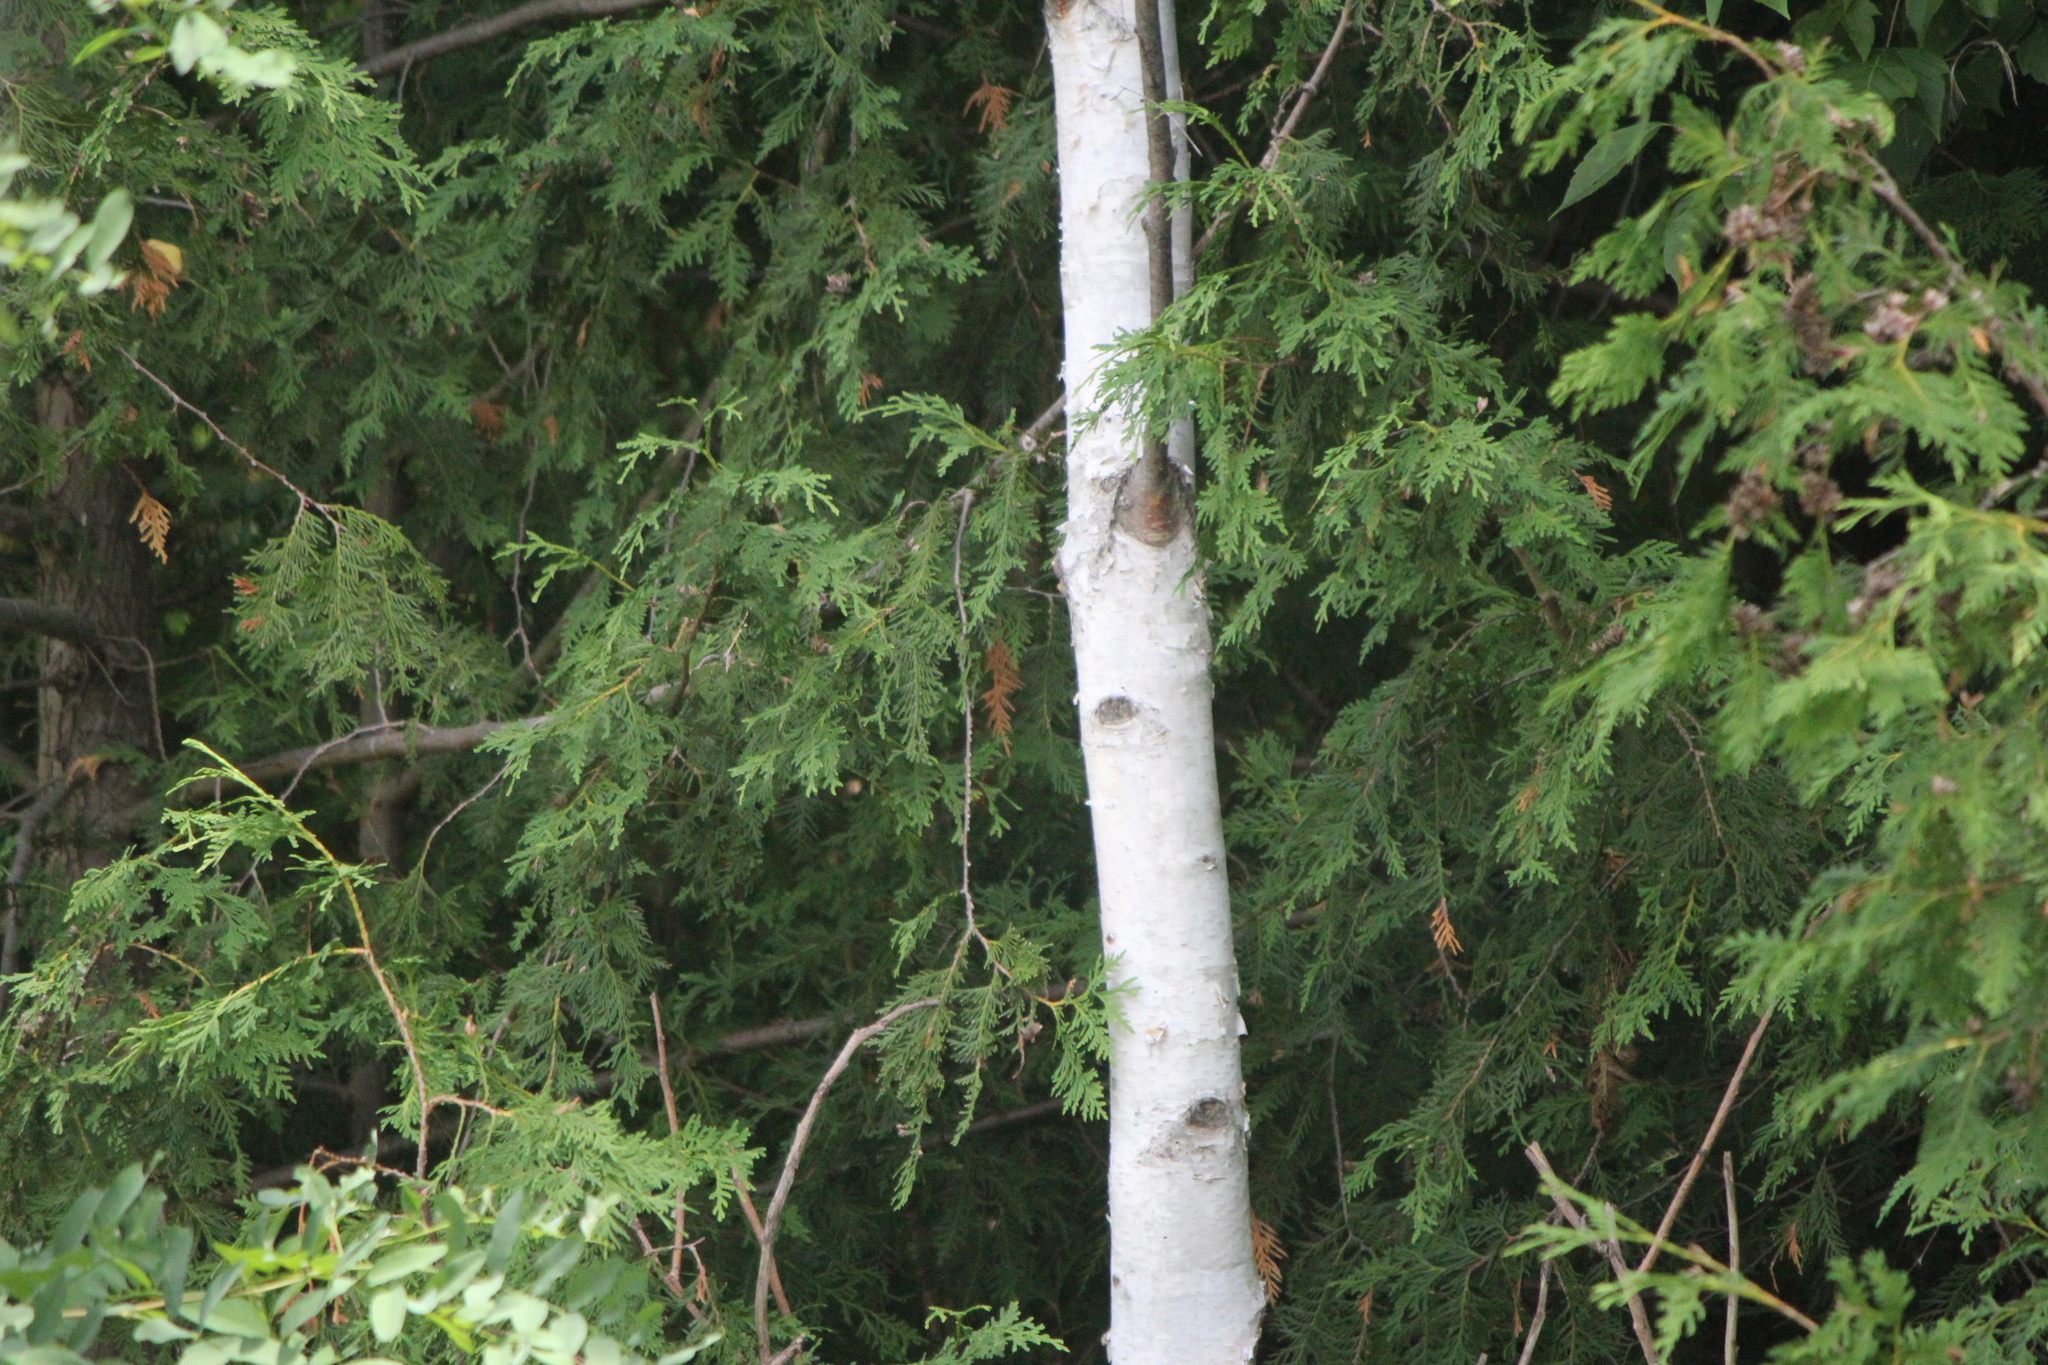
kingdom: Plantae
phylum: Tracheophyta
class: Magnoliopsida
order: Fagales
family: Betulaceae
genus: Betula
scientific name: Betula papyrifera
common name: Paper birch
